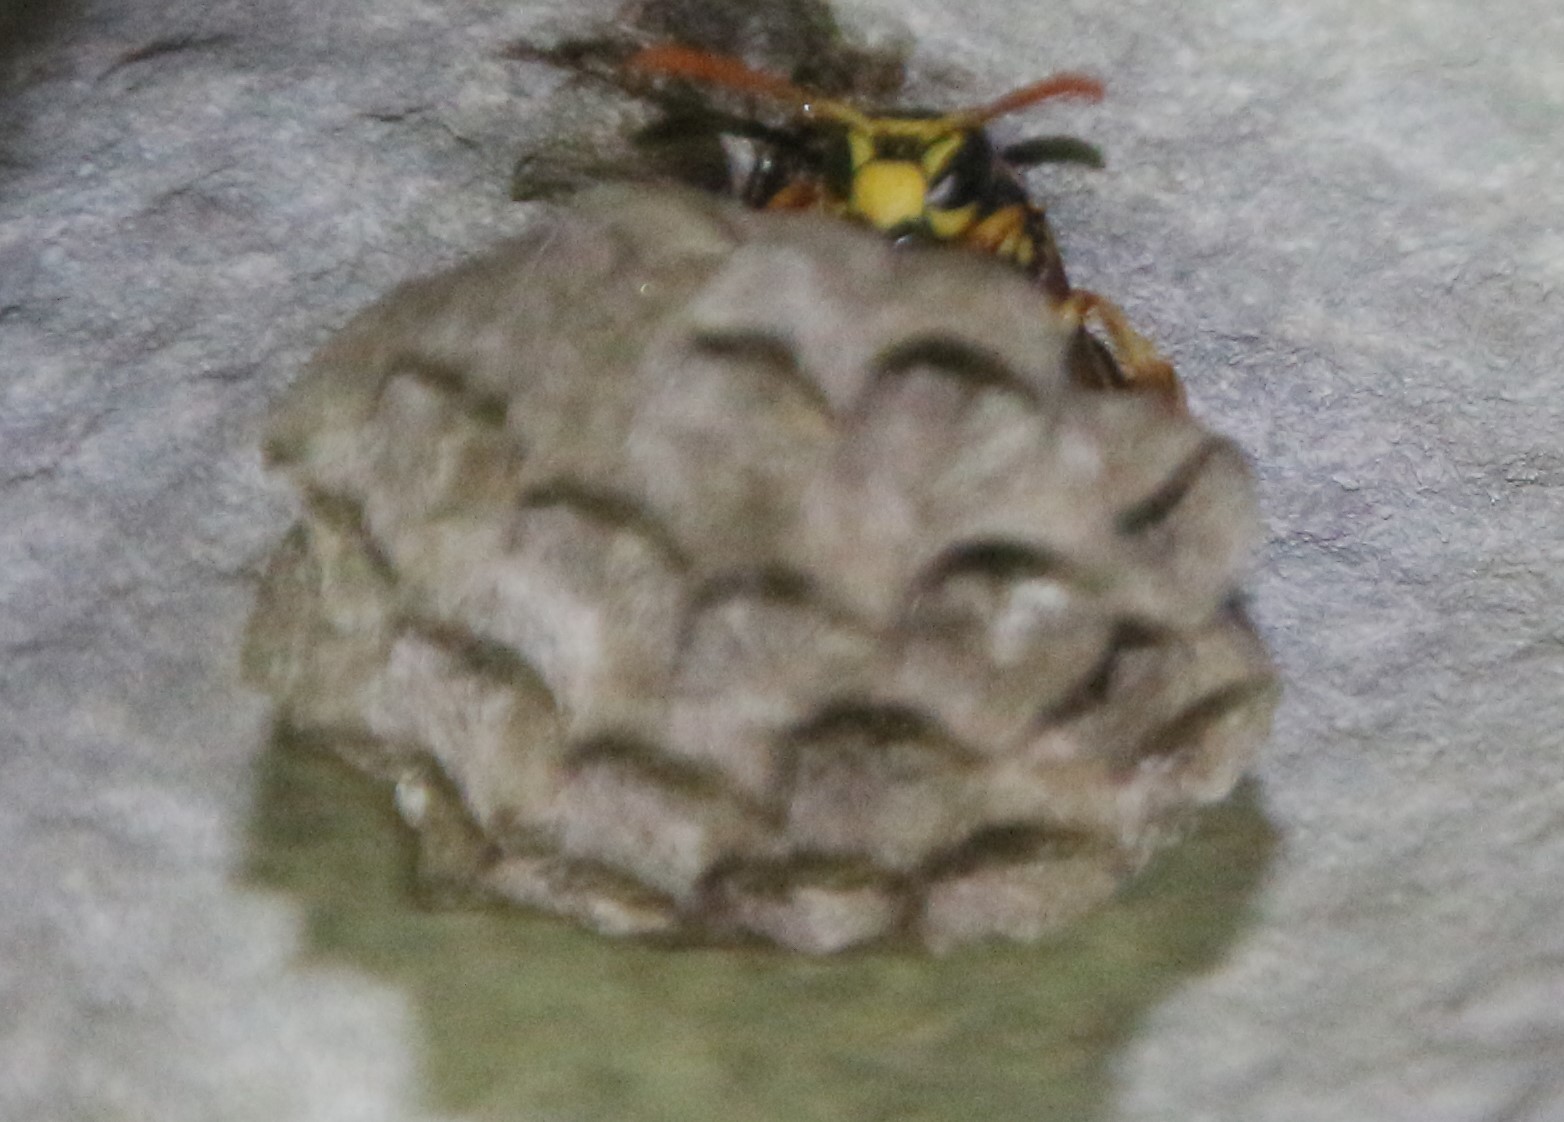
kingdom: Animalia
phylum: Arthropoda
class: Insecta
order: Hymenoptera
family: Eumenidae
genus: Polistes
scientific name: Polistes dominula
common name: Paper wasp
